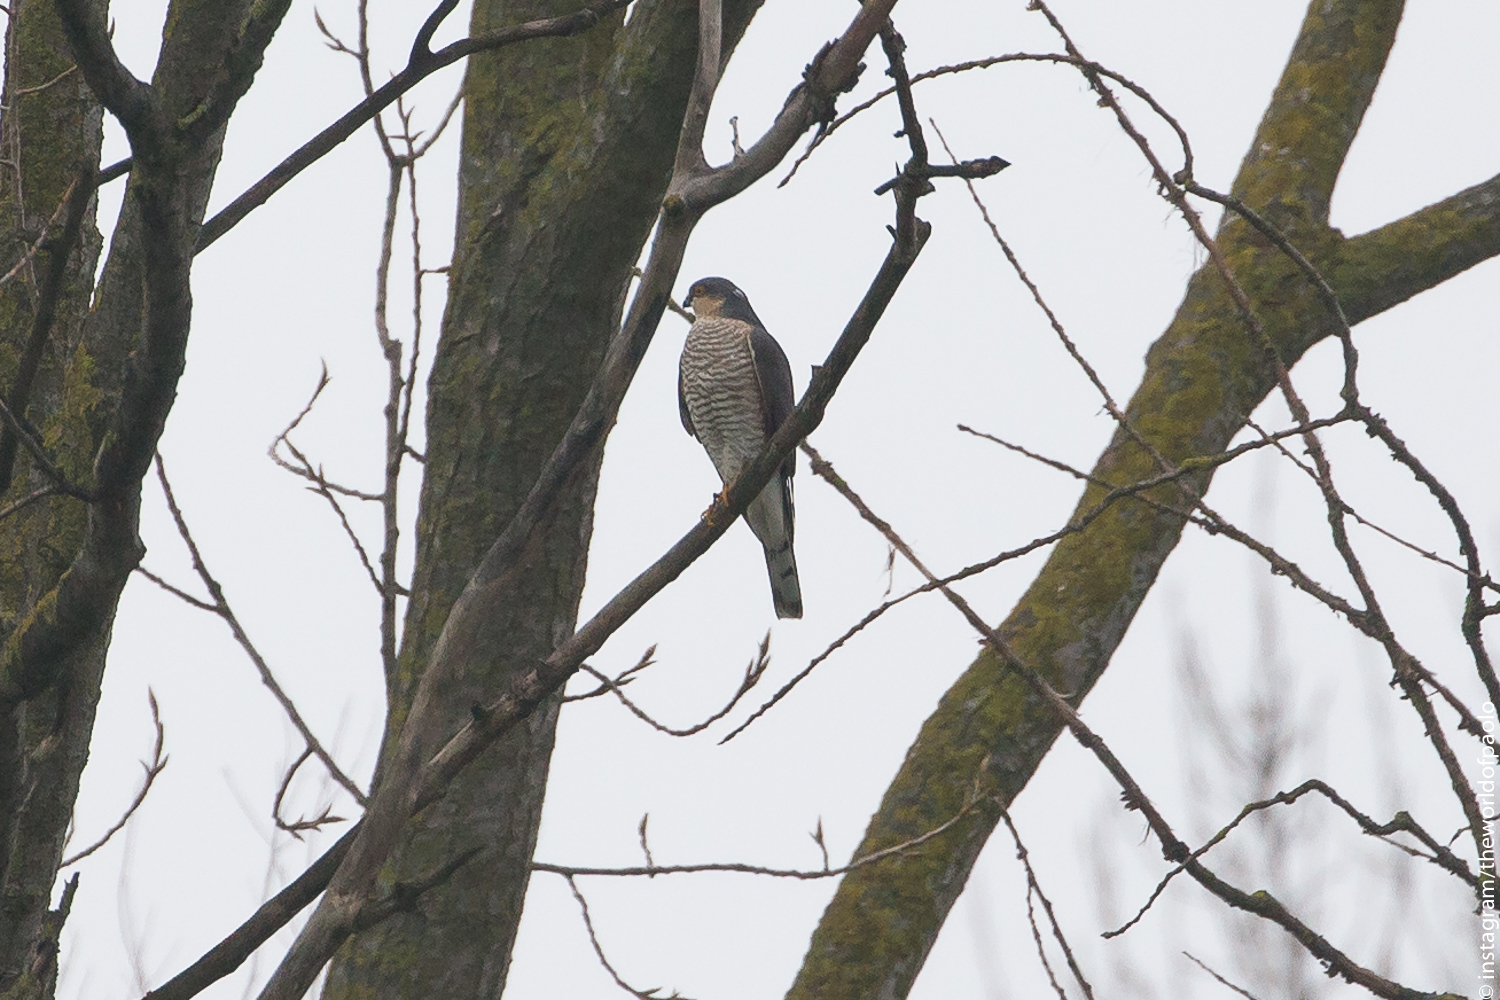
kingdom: Animalia
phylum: Chordata
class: Aves
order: Accipitriformes
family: Accipitridae
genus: Accipiter
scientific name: Accipiter nisus
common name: Eurasian sparrowhawk
